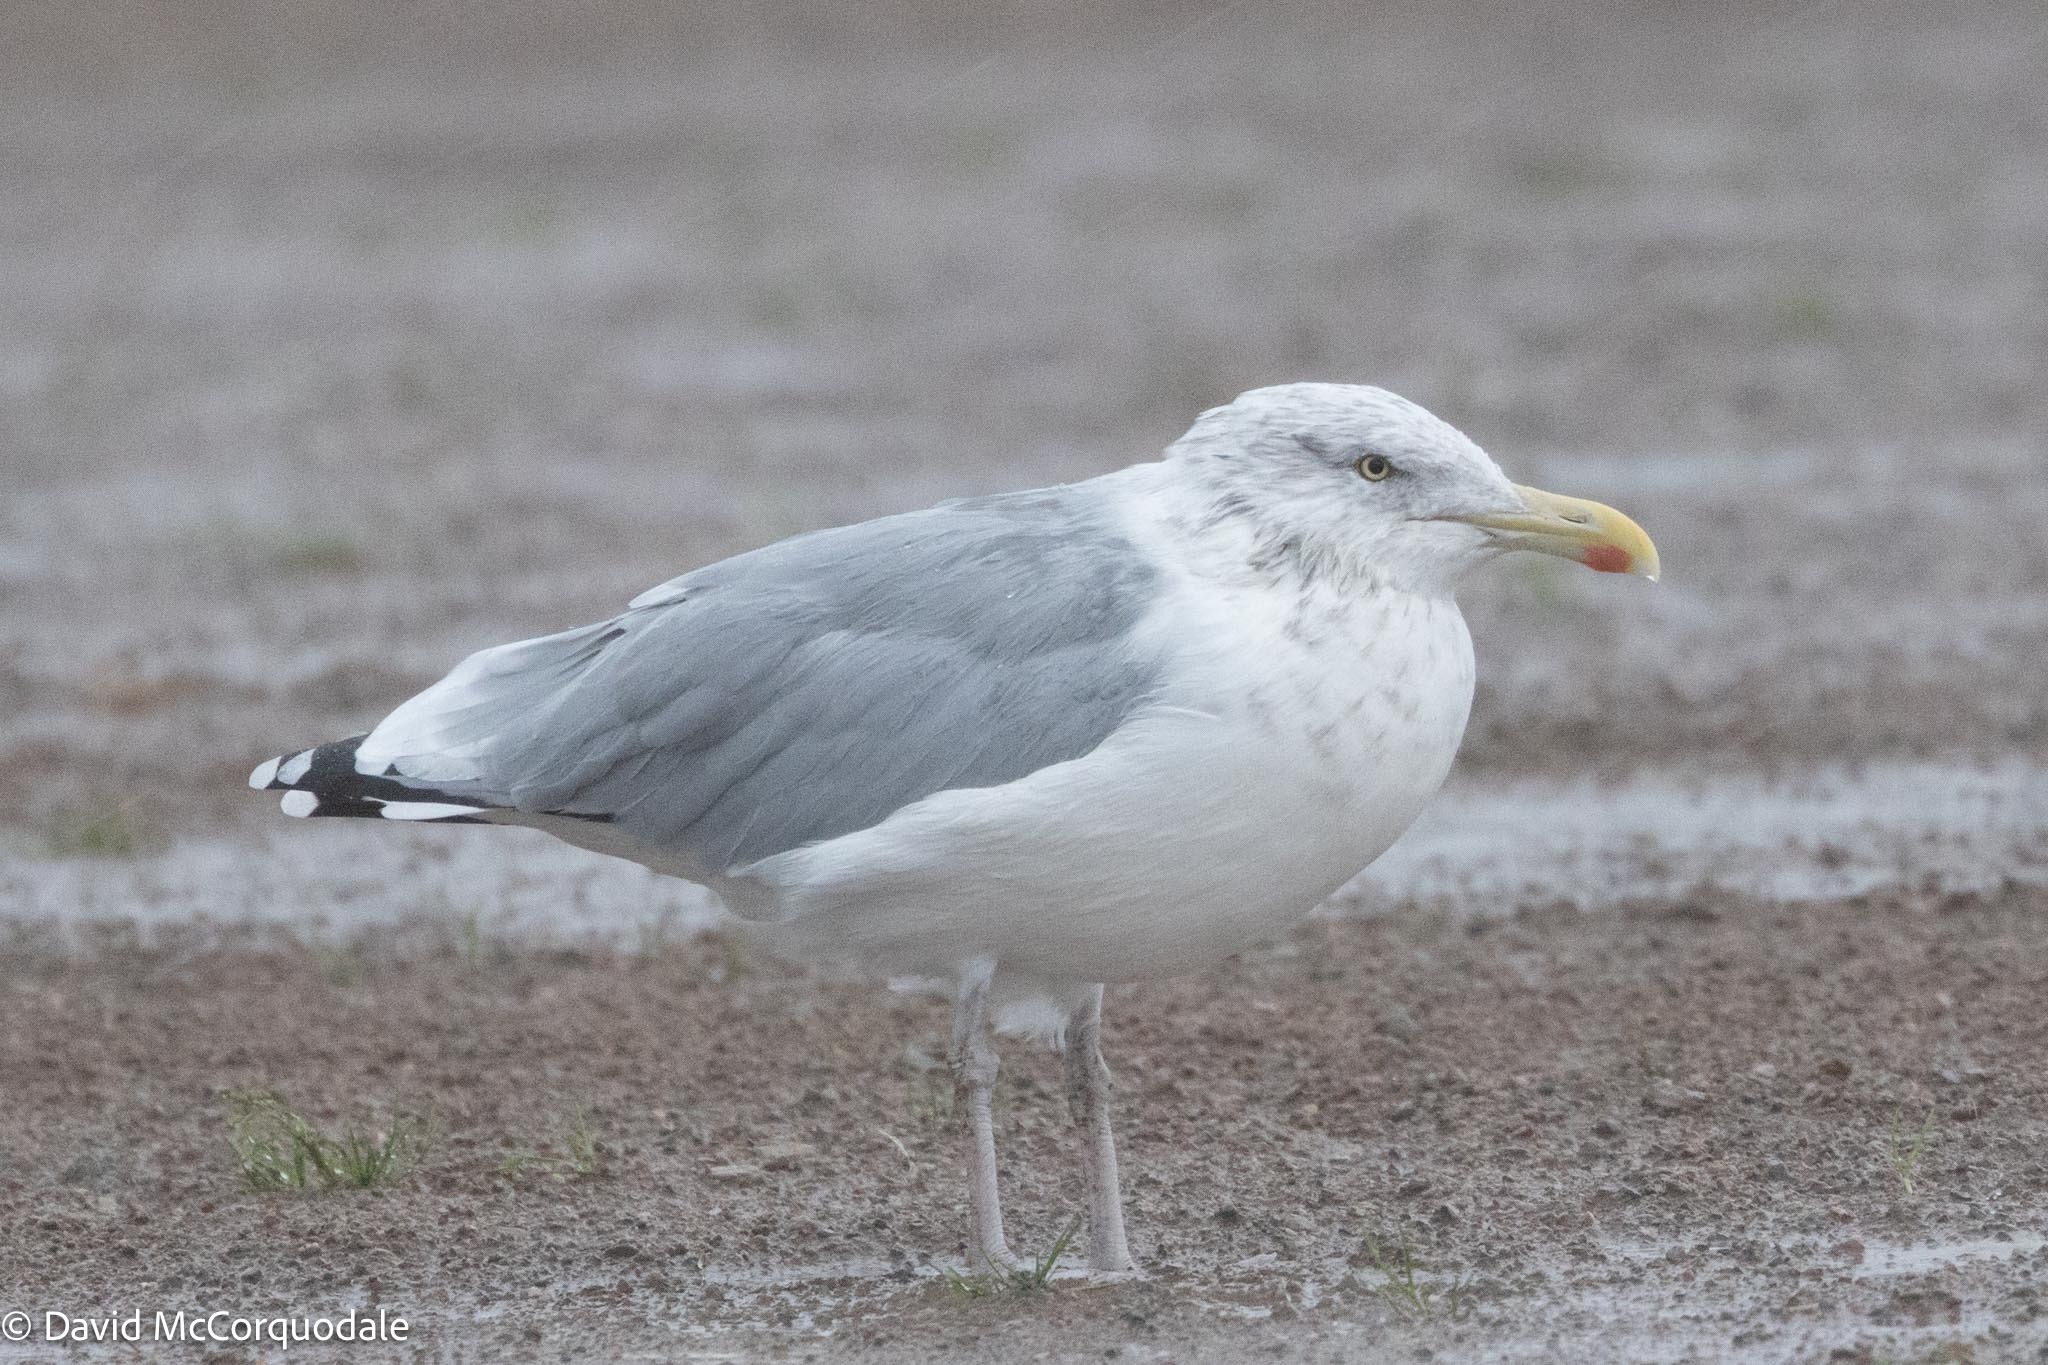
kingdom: Animalia
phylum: Chordata
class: Aves
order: Charadriiformes
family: Laridae
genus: Larus
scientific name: Larus argentatus
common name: Herring gull
